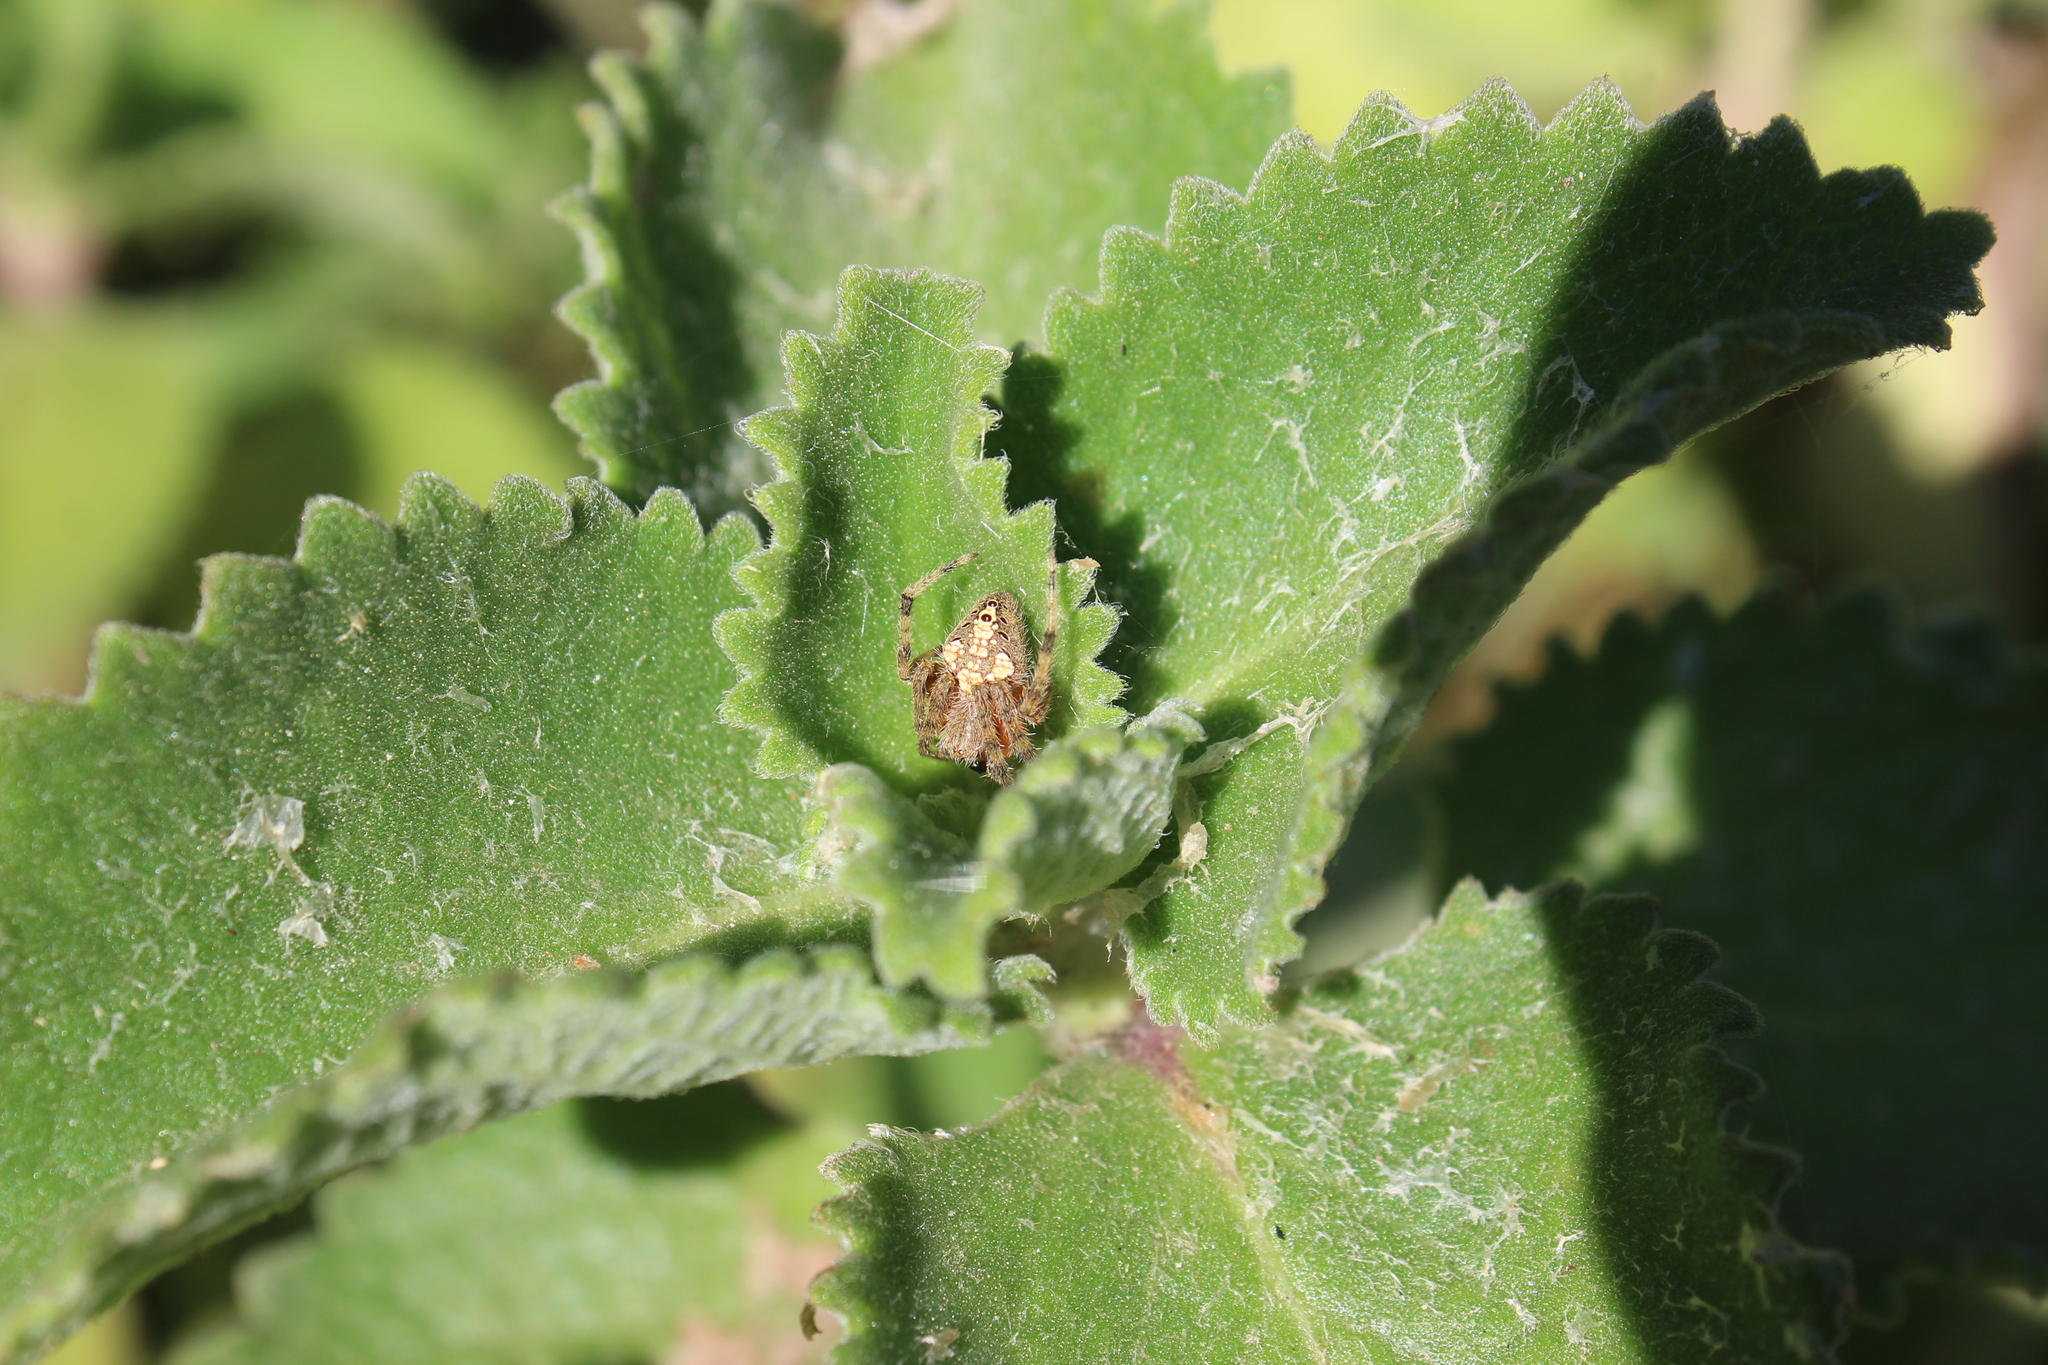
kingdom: Animalia
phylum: Arthropoda
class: Arachnida
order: Araneae
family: Araneidae
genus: Eriophora
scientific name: Eriophora fuliginea
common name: Orb weavers
